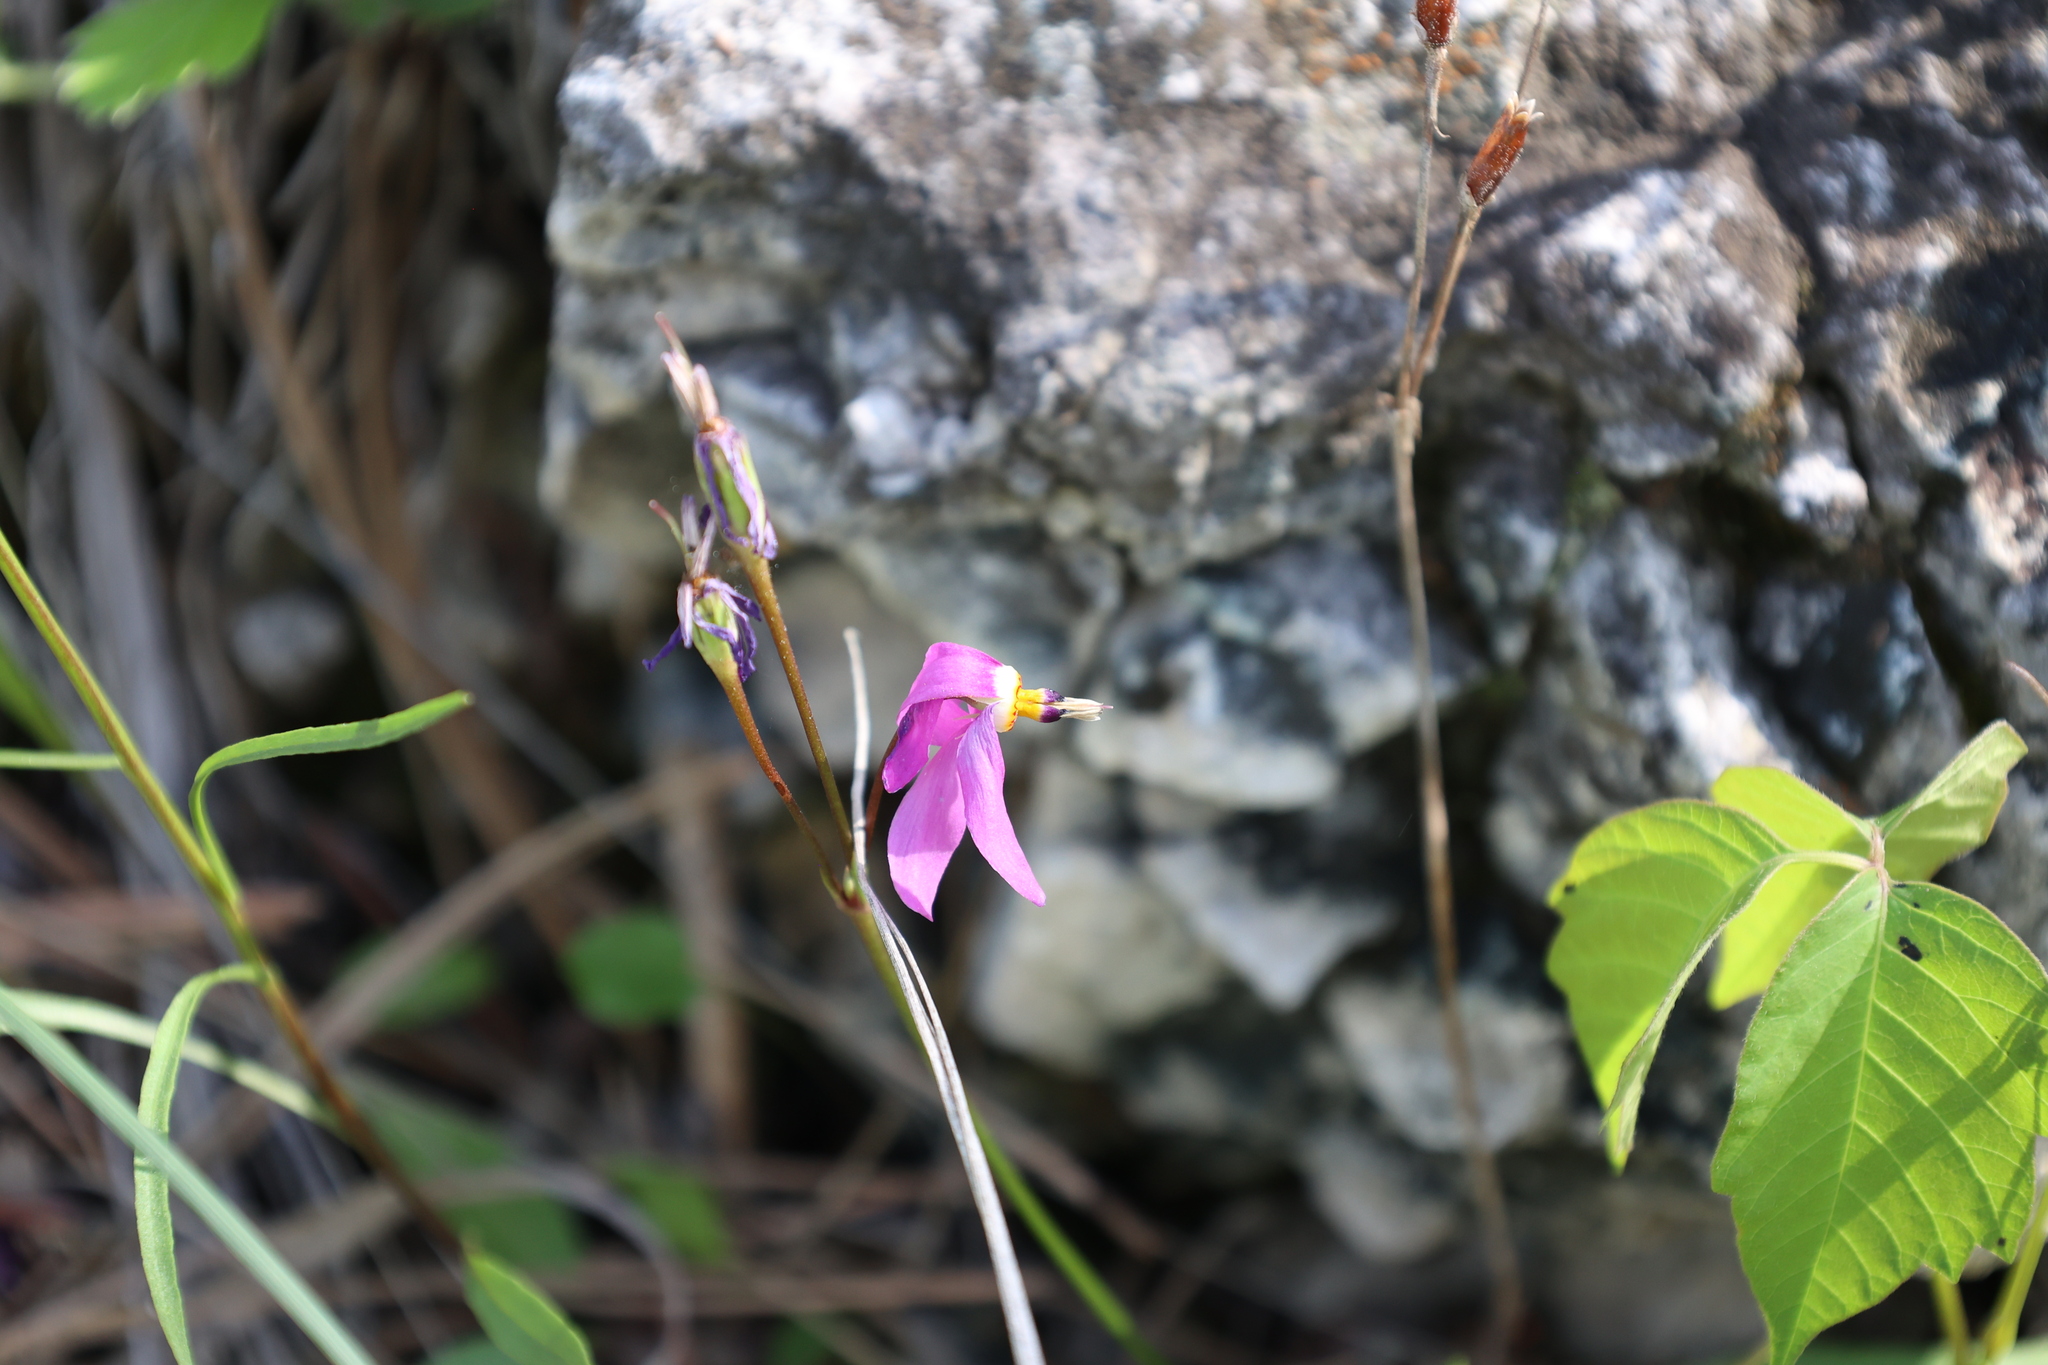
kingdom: Plantae
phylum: Tracheophyta
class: Magnoliopsida
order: Ericales
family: Primulaceae
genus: Dodecatheon
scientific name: Dodecatheon pulchellum
